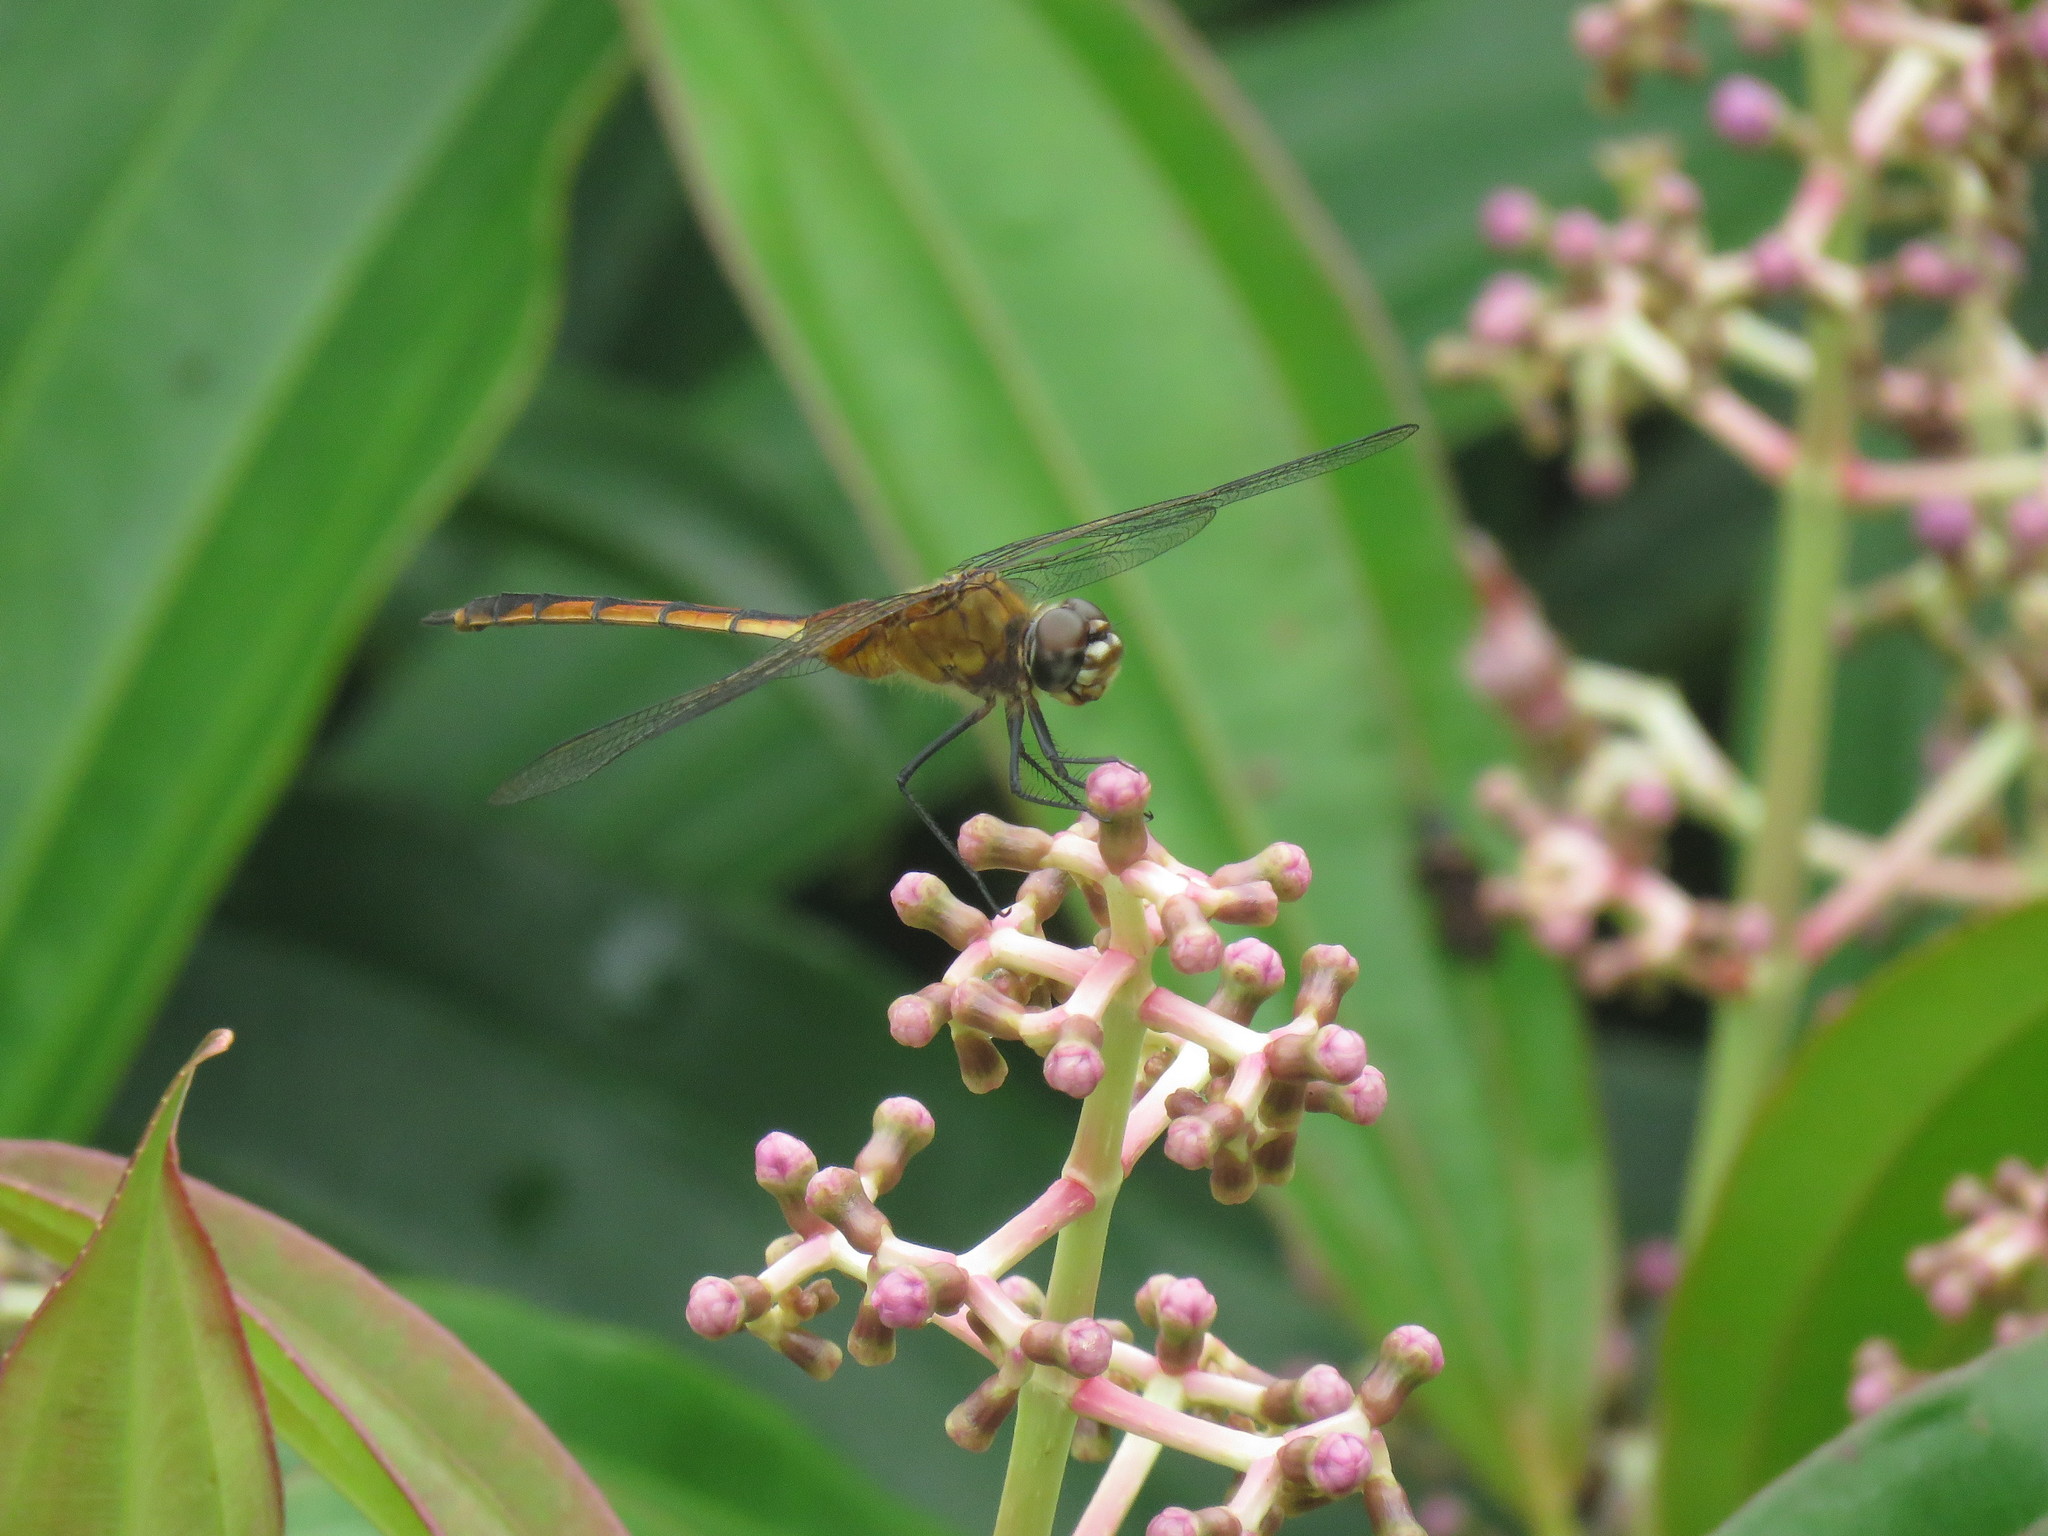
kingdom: Animalia
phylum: Arthropoda
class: Insecta
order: Odonata
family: Libellulidae
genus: Brachymesia
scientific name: Brachymesia herbida
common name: Tawny pennant
